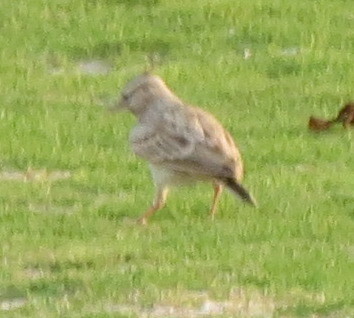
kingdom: Animalia
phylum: Chordata
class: Aves
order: Passeriformes
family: Alaudidae
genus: Galerida
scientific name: Galerida cristata
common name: Crested lark
